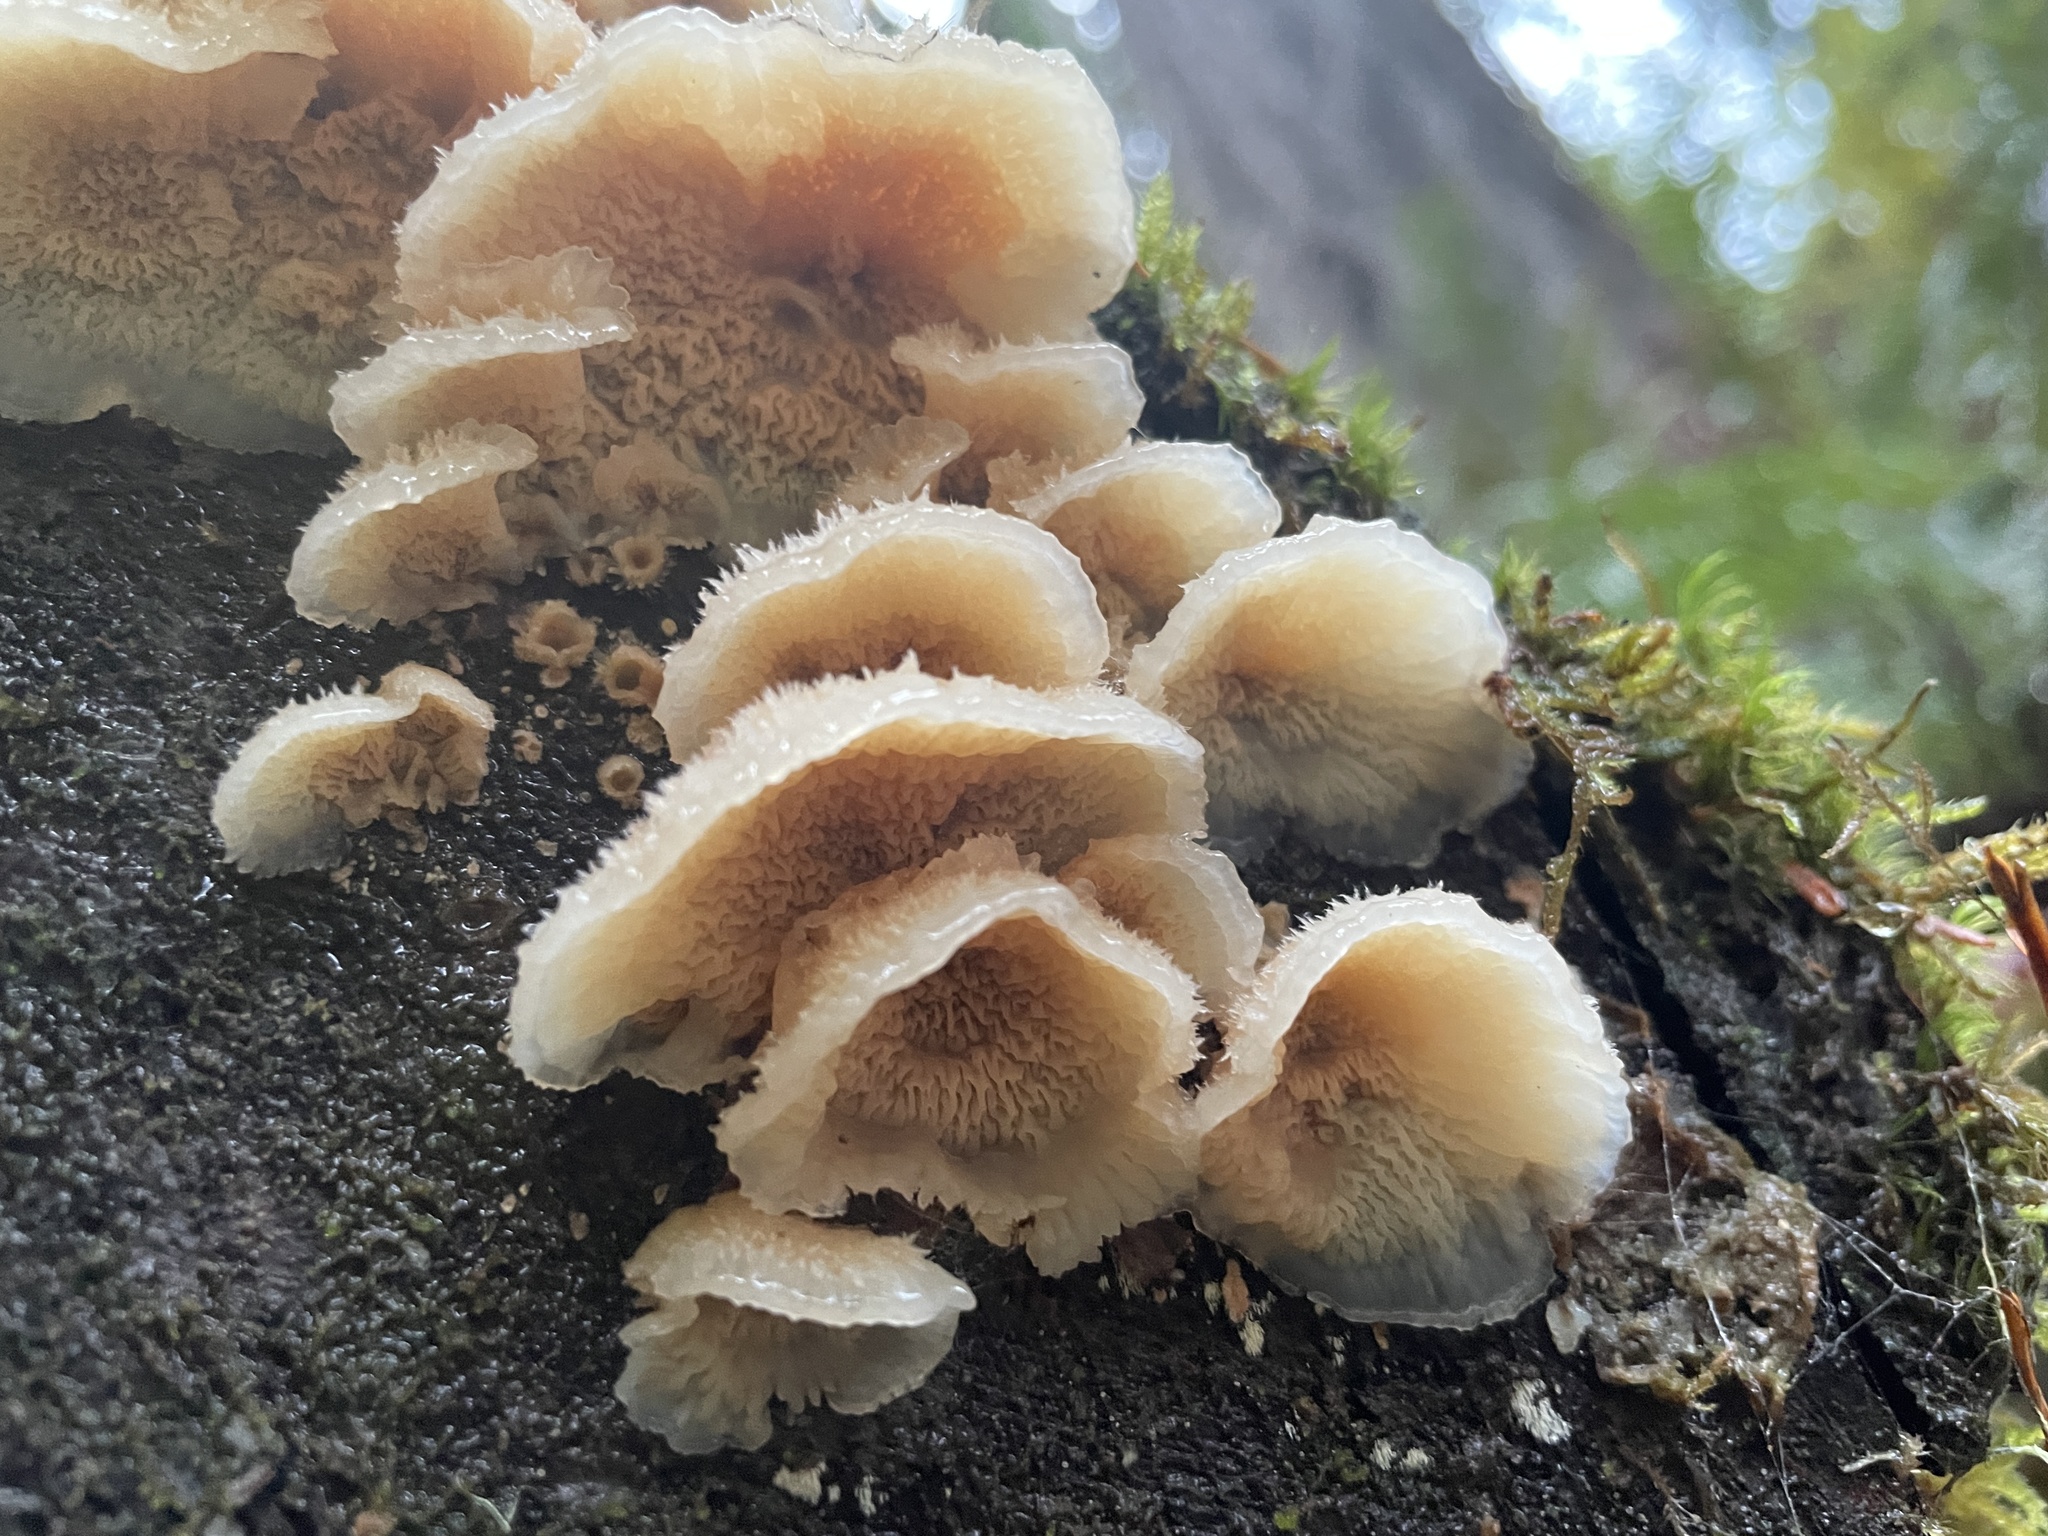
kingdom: Fungi
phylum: Basidiomycota
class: Agaricomycetes
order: Polyporales
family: Meruliaceae
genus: Phlebia
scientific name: Phlebia tremellosa
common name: Jelly rot
